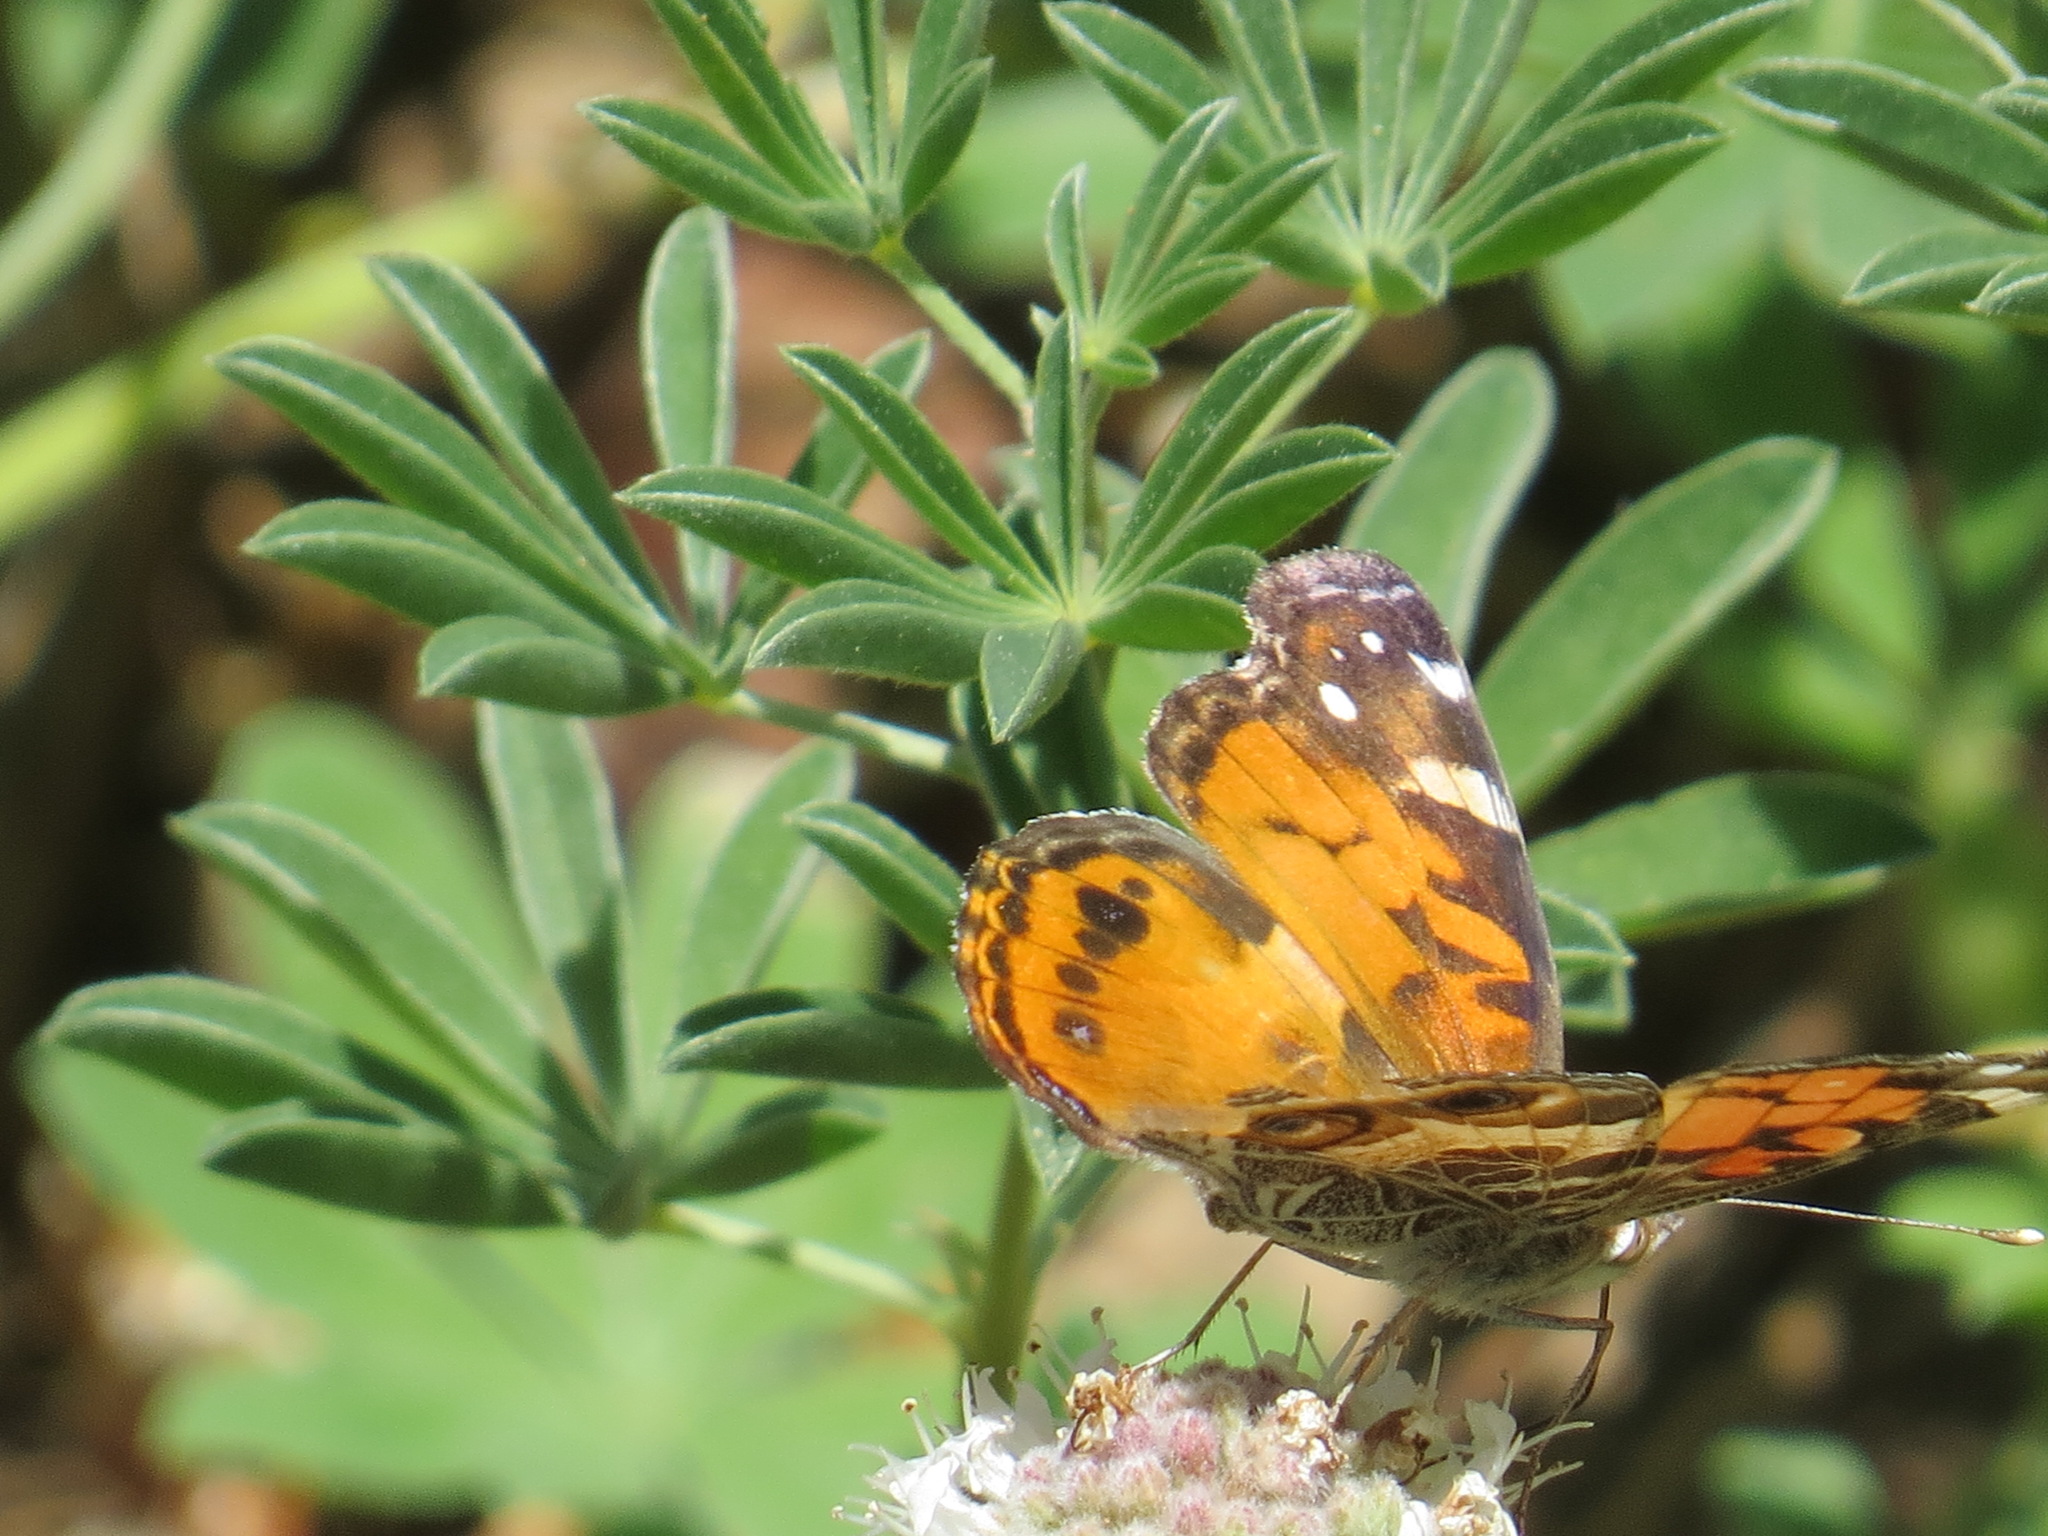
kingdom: Animalia
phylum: Arthropoda
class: Insecta
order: Lepidoptera
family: Nymphalidae
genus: Vanessa
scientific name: Vanessa virginiensis
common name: American lady
